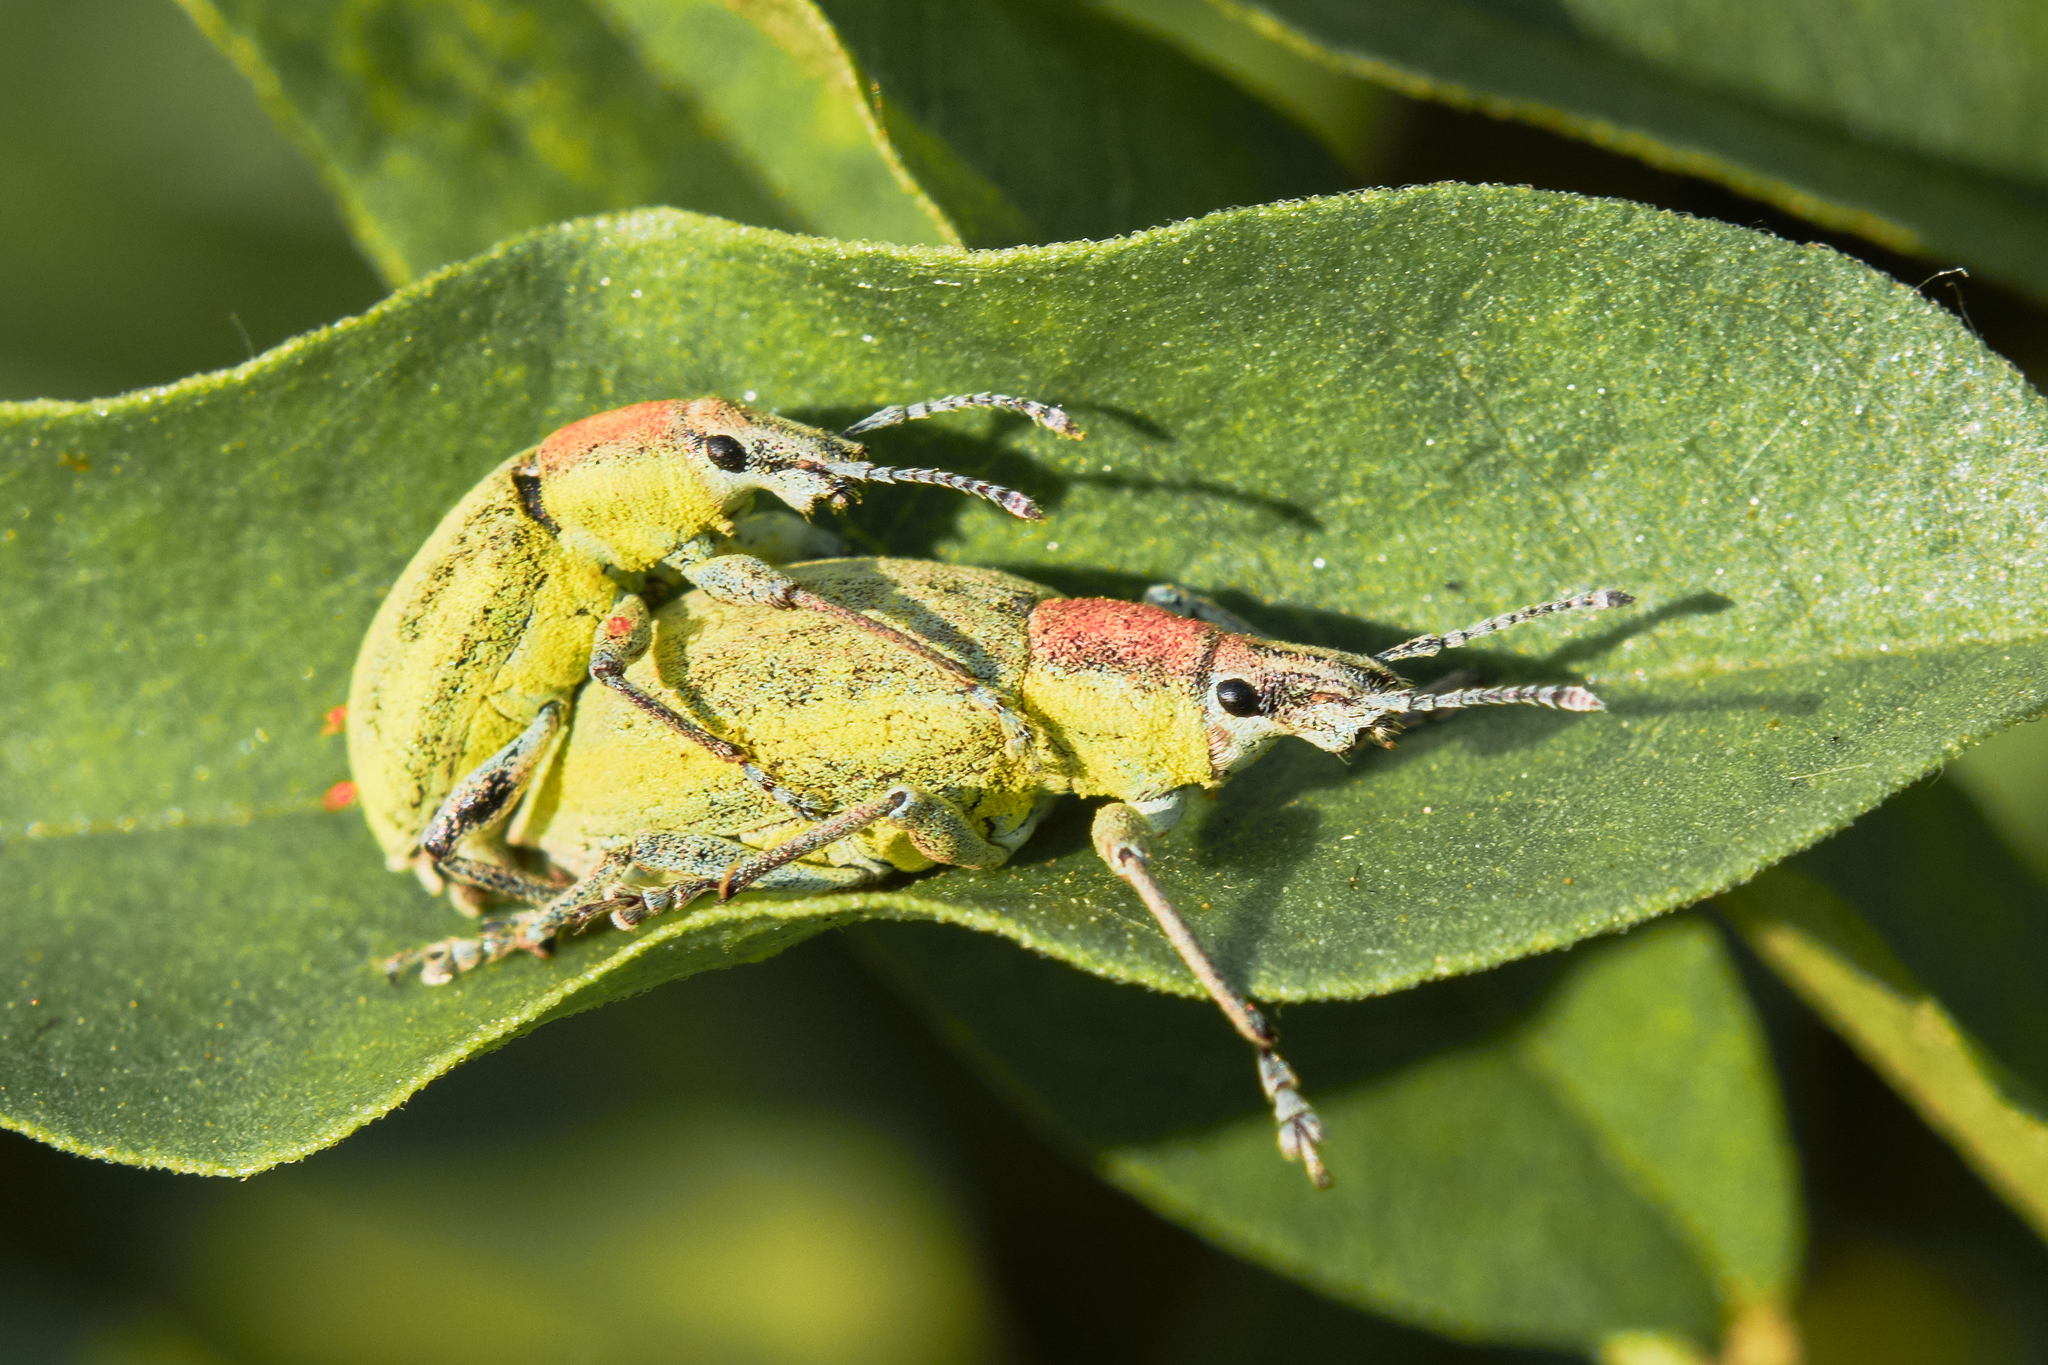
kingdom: Animalia
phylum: Arthropoda
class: Insecta
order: Coleoptera
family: Curculionidae
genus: Chlorophanus
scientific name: Chlorophanus micans
